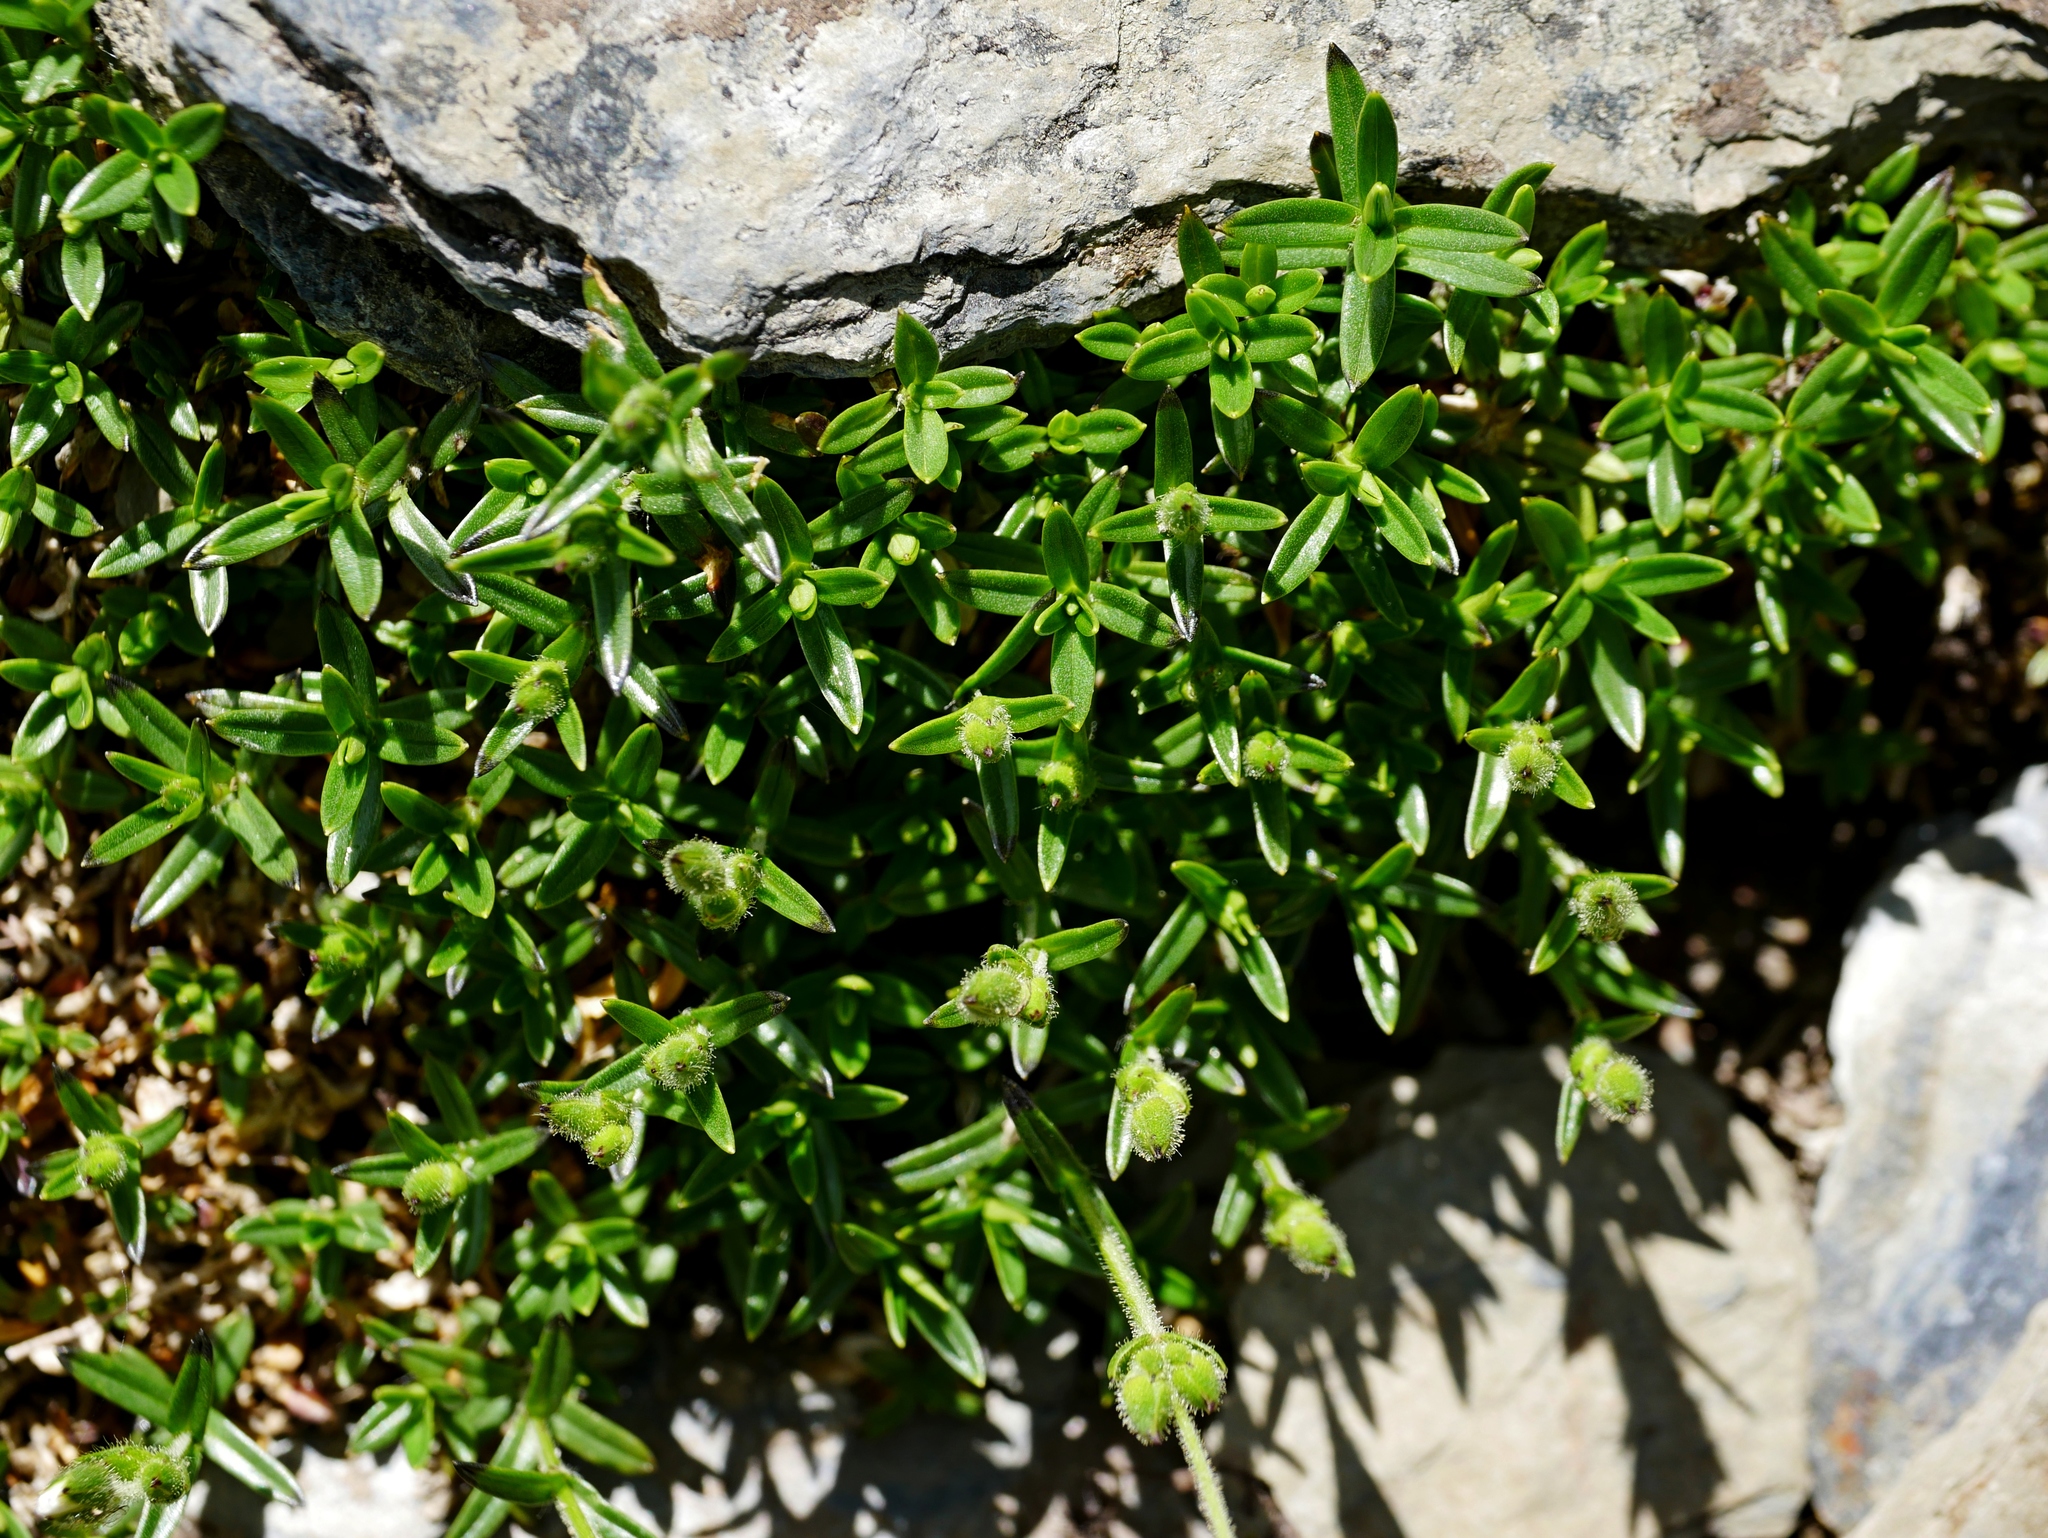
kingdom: Plantae
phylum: Tracheophyta
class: Magnoliopsida
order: Caryophyllales
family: Caryophyllaceae
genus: Cerastium
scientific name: Cerastium morrisonense
